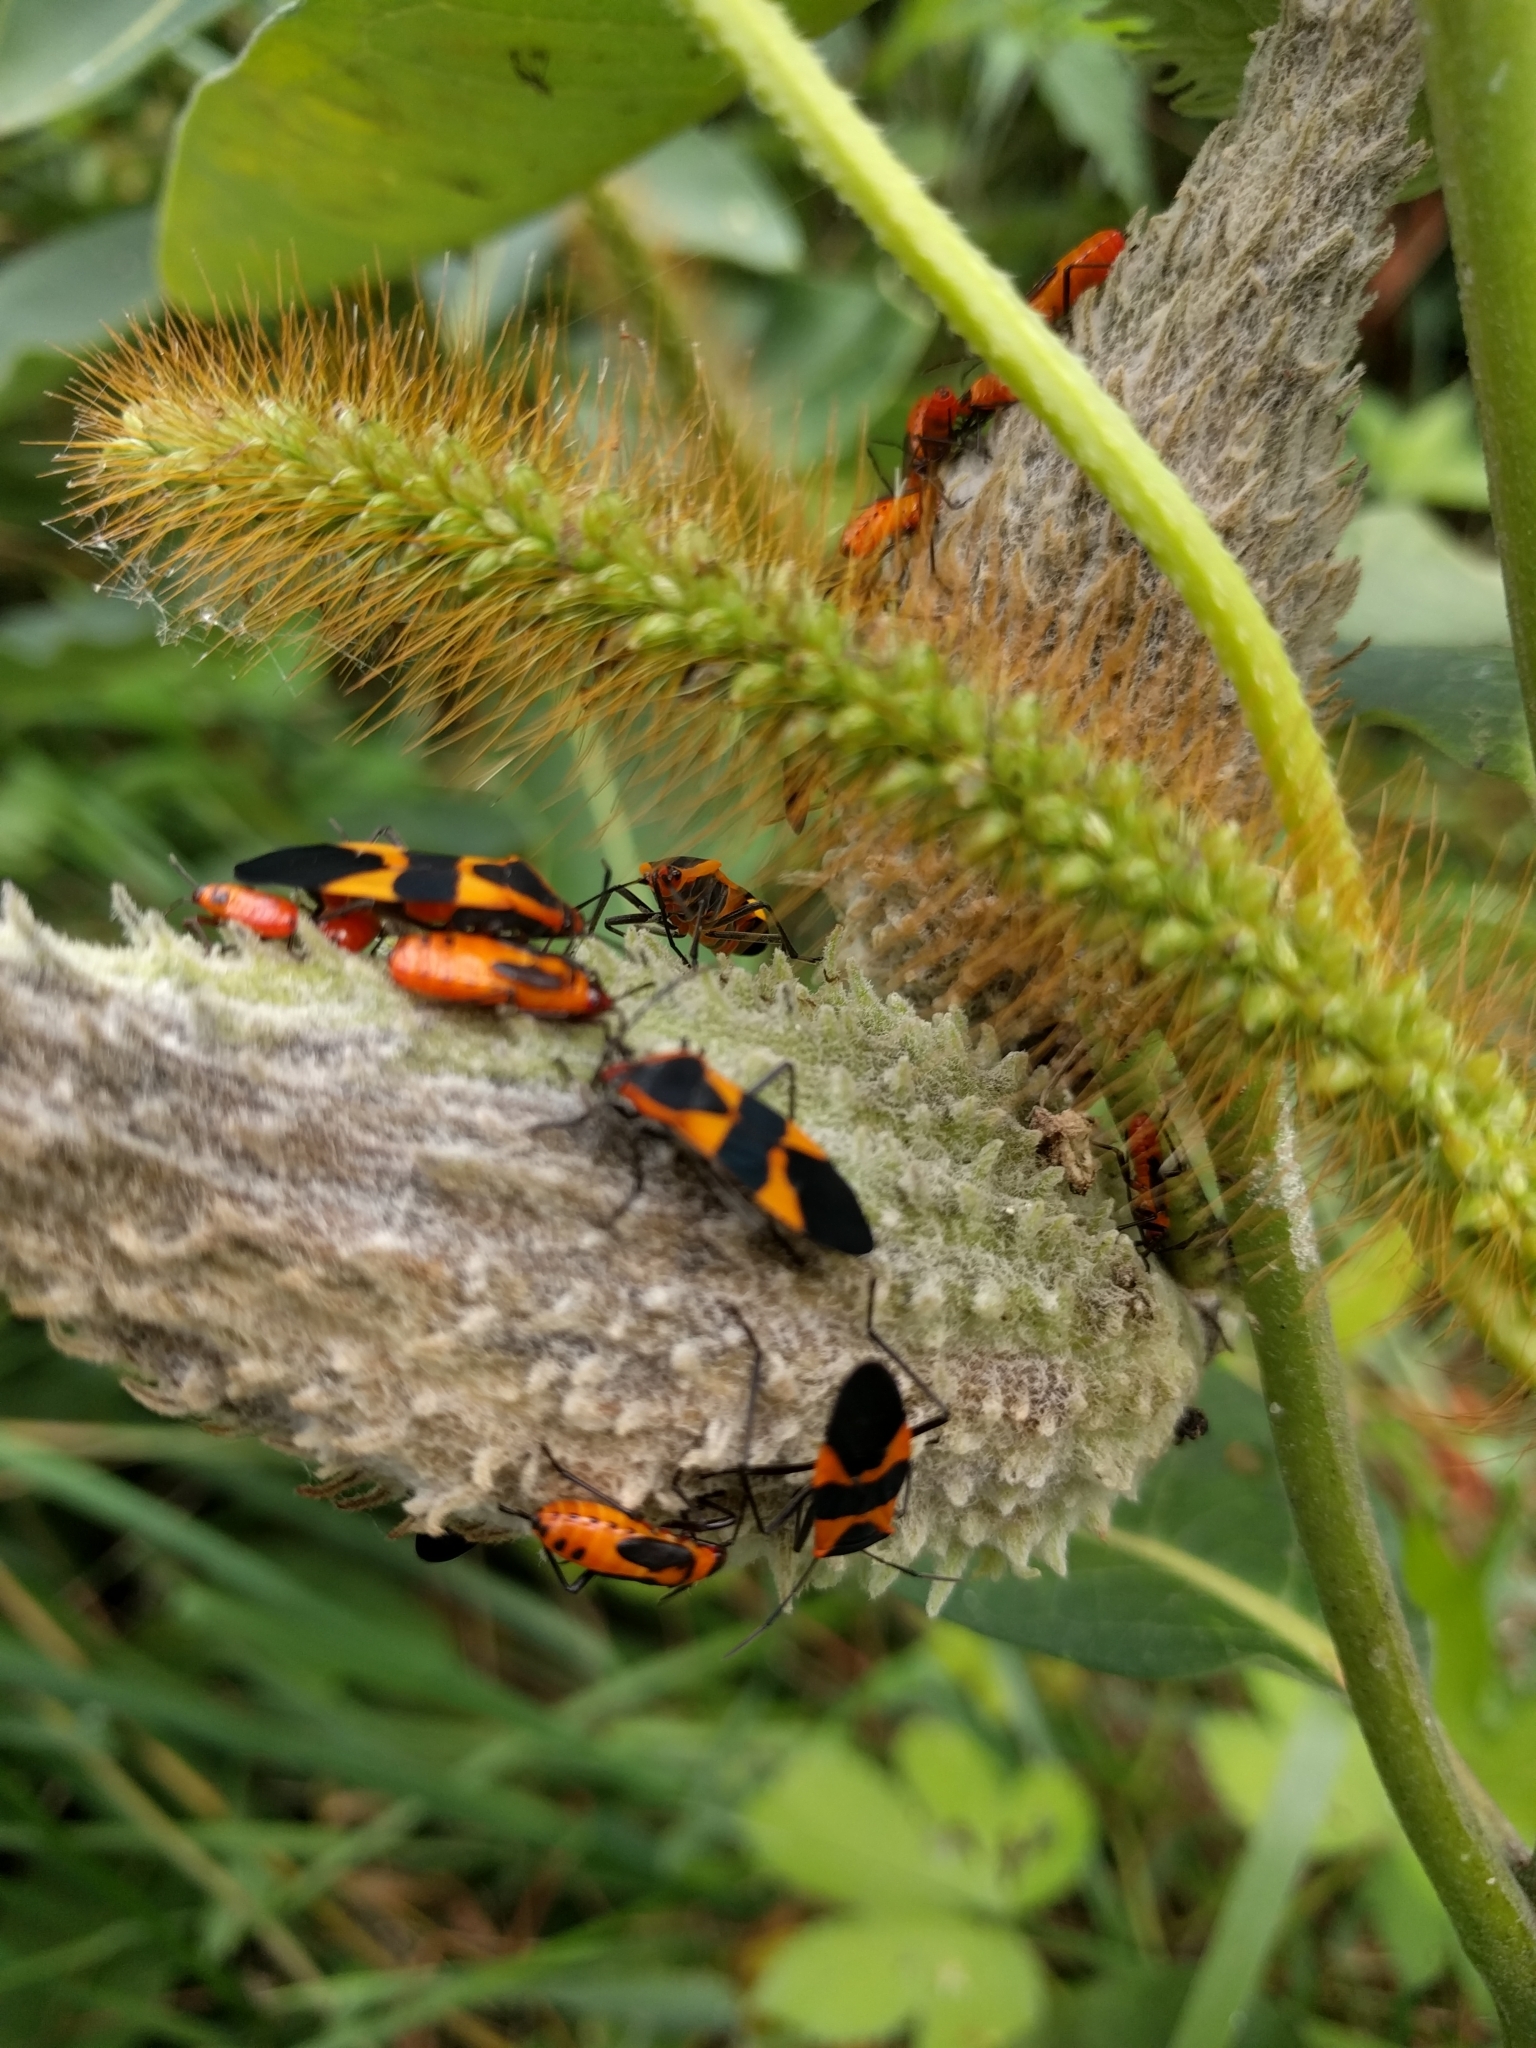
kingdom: Animalia
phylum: Arthropoda
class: Insecta
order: Hemiptera
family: Lygaeidae
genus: Oncopeltus
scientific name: Oncopeltus fasciatus
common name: Large milkweed bug
